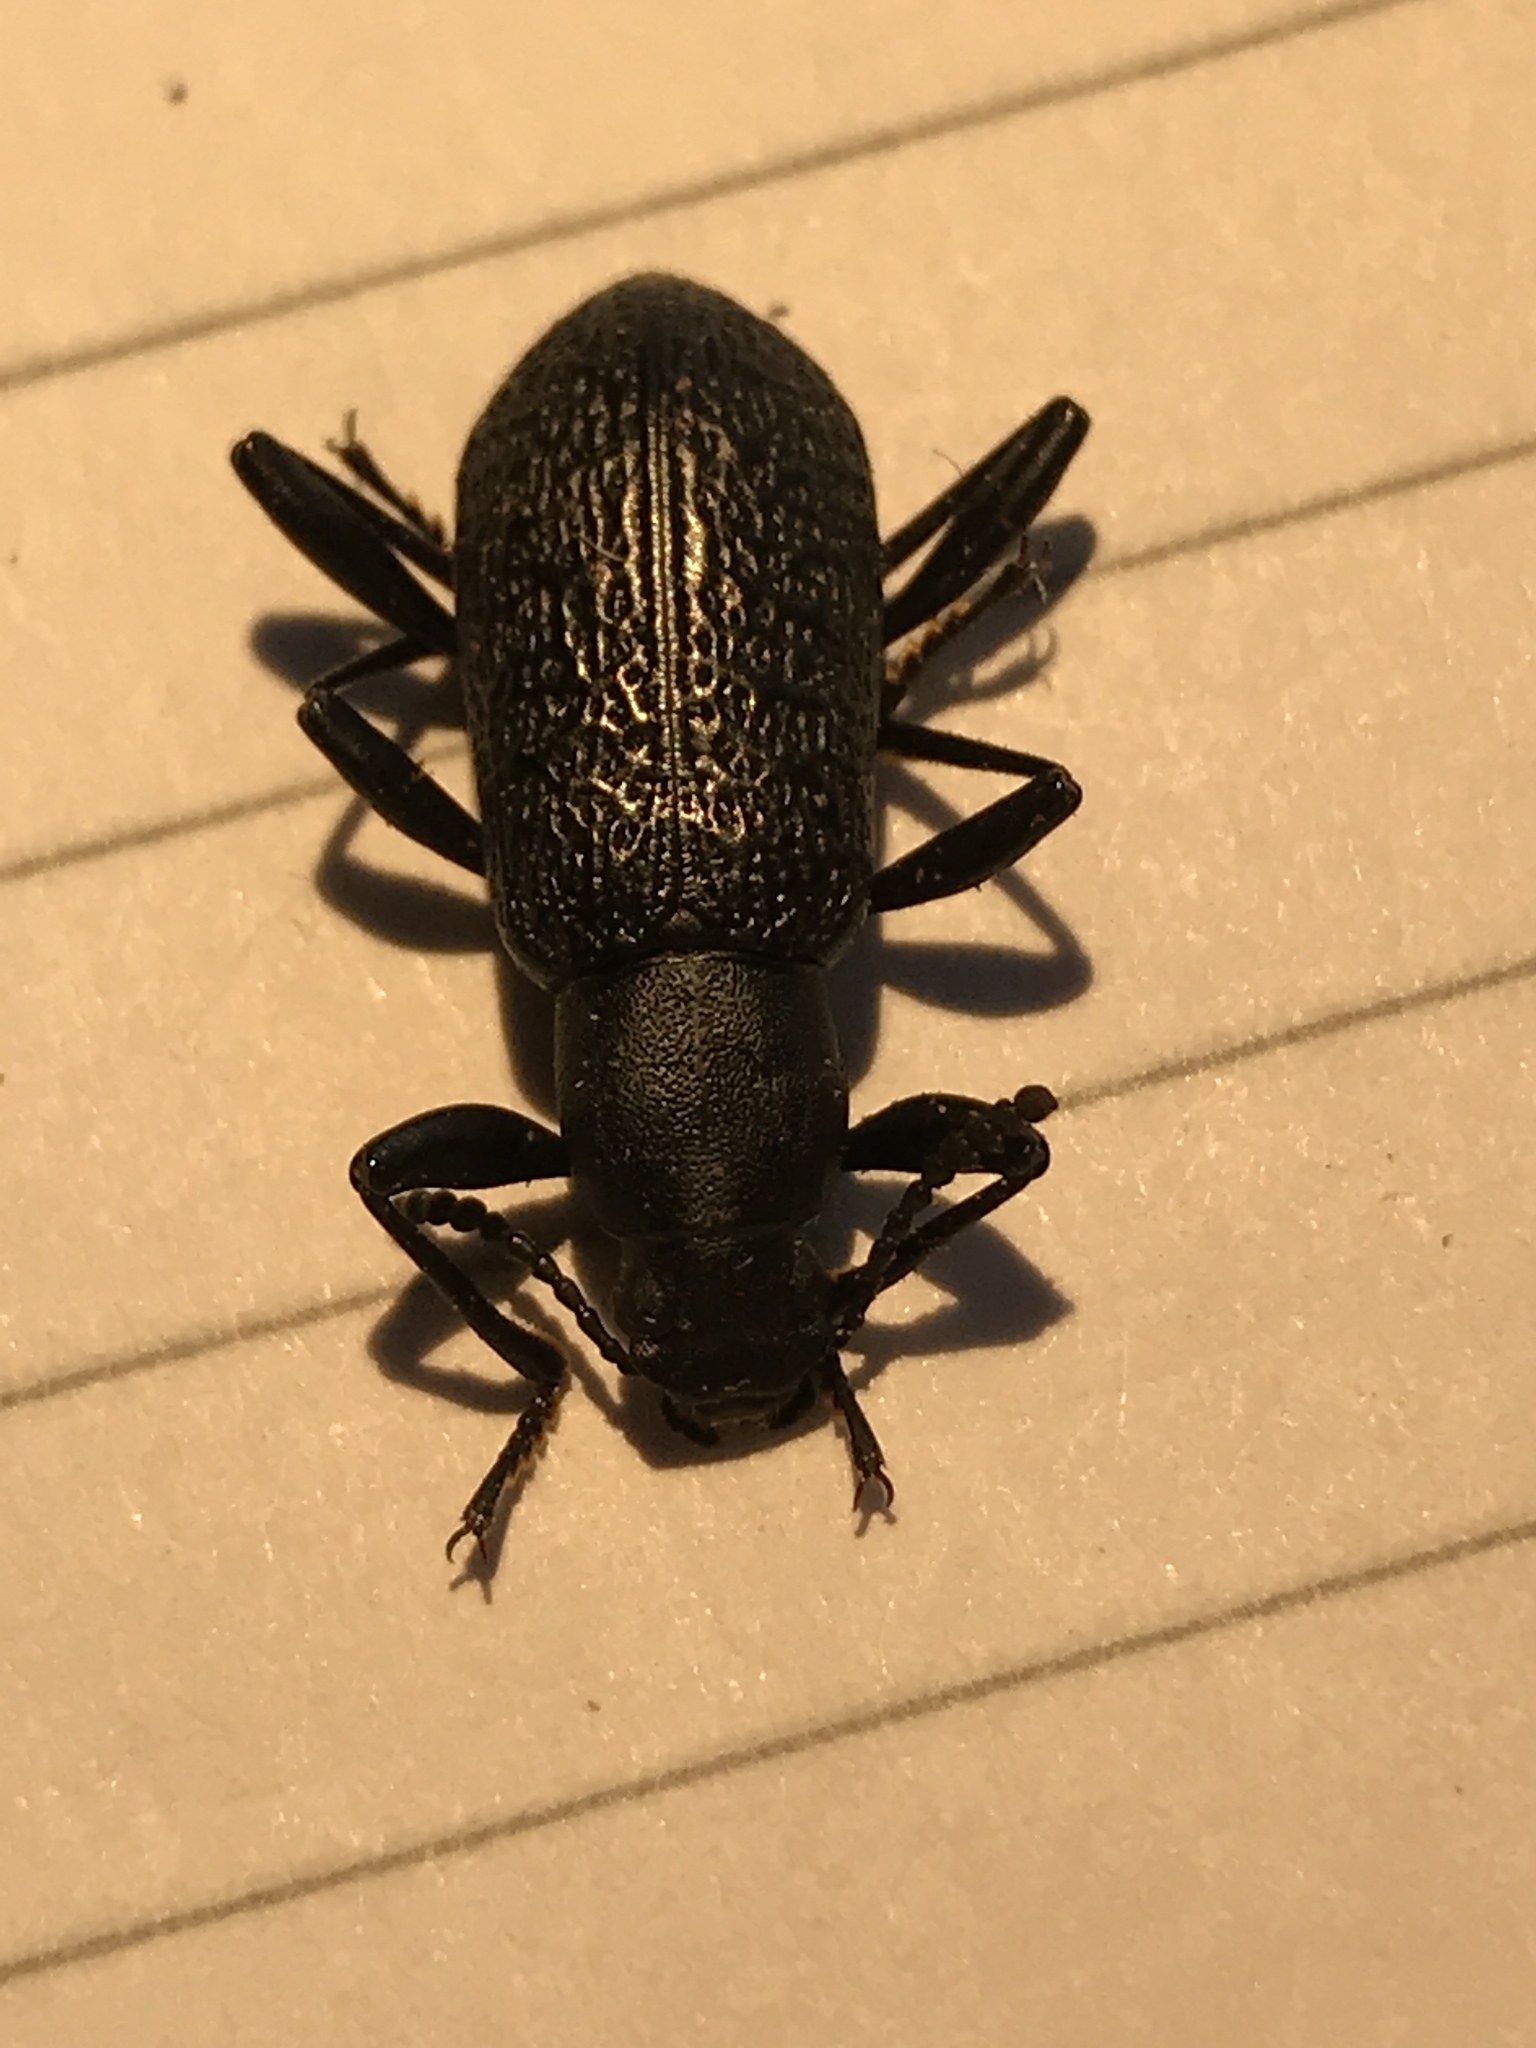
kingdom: Animalia
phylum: Arthropoda
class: Insecta
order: Coleoptera
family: Tenebrionidae
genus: Upis
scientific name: Upis ceramboides
